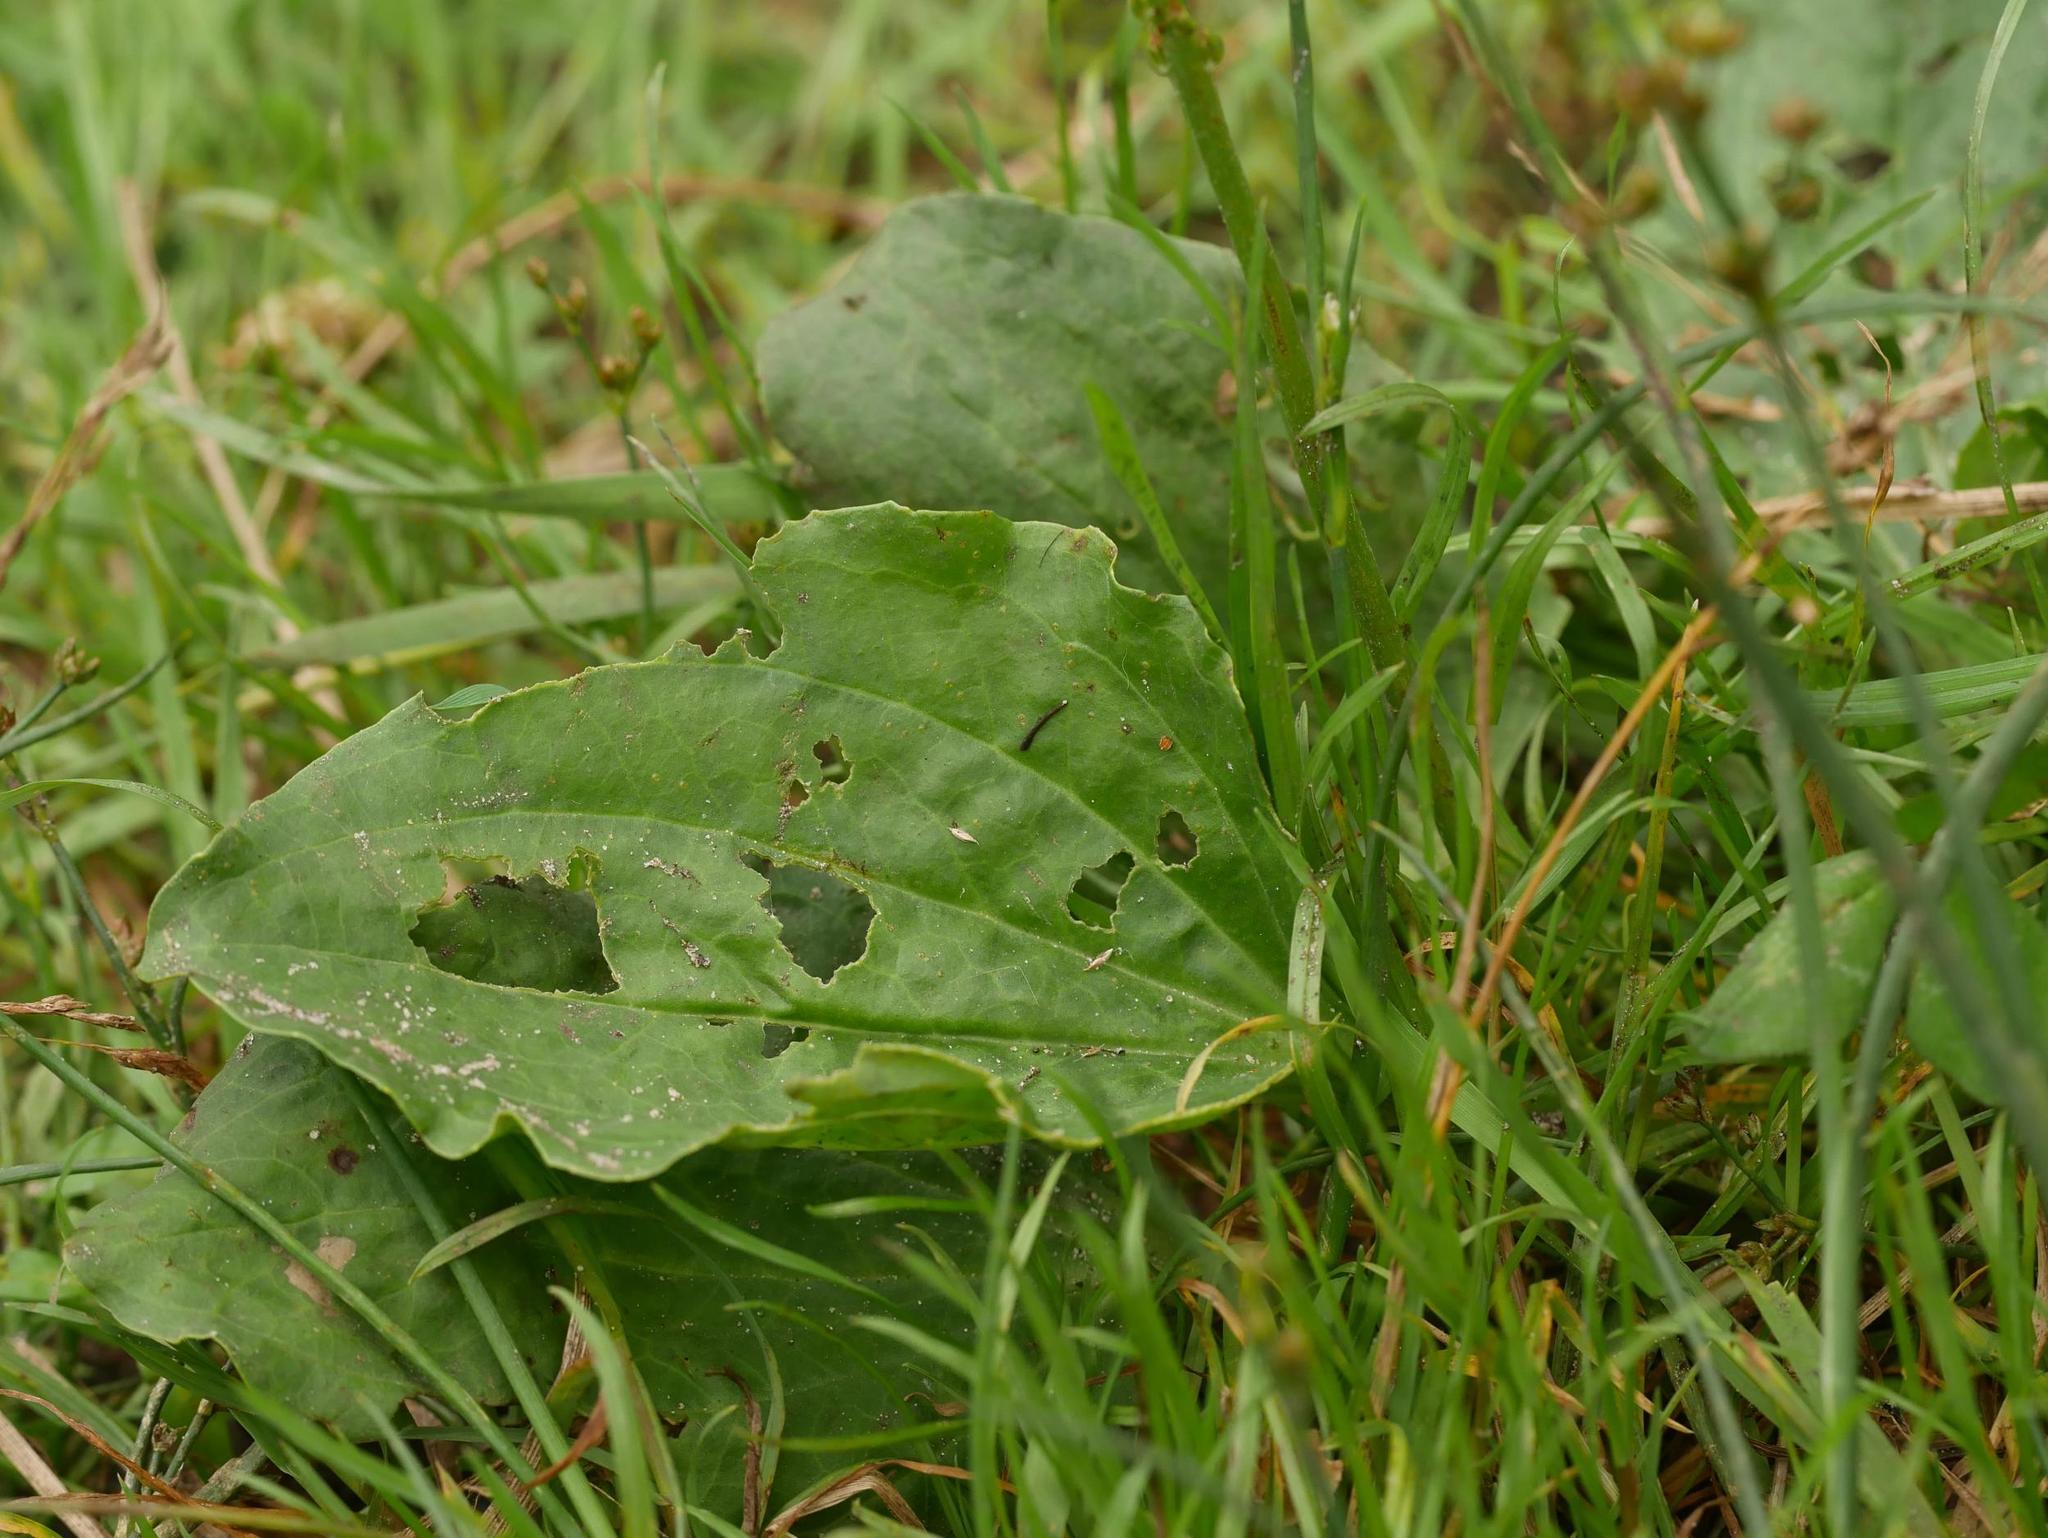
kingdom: Plantae
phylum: Tracheophyta
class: Magnoliopsida
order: Lamiales
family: Plantaginaceae
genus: Plantago
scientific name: Plantago major
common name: Common plantain
